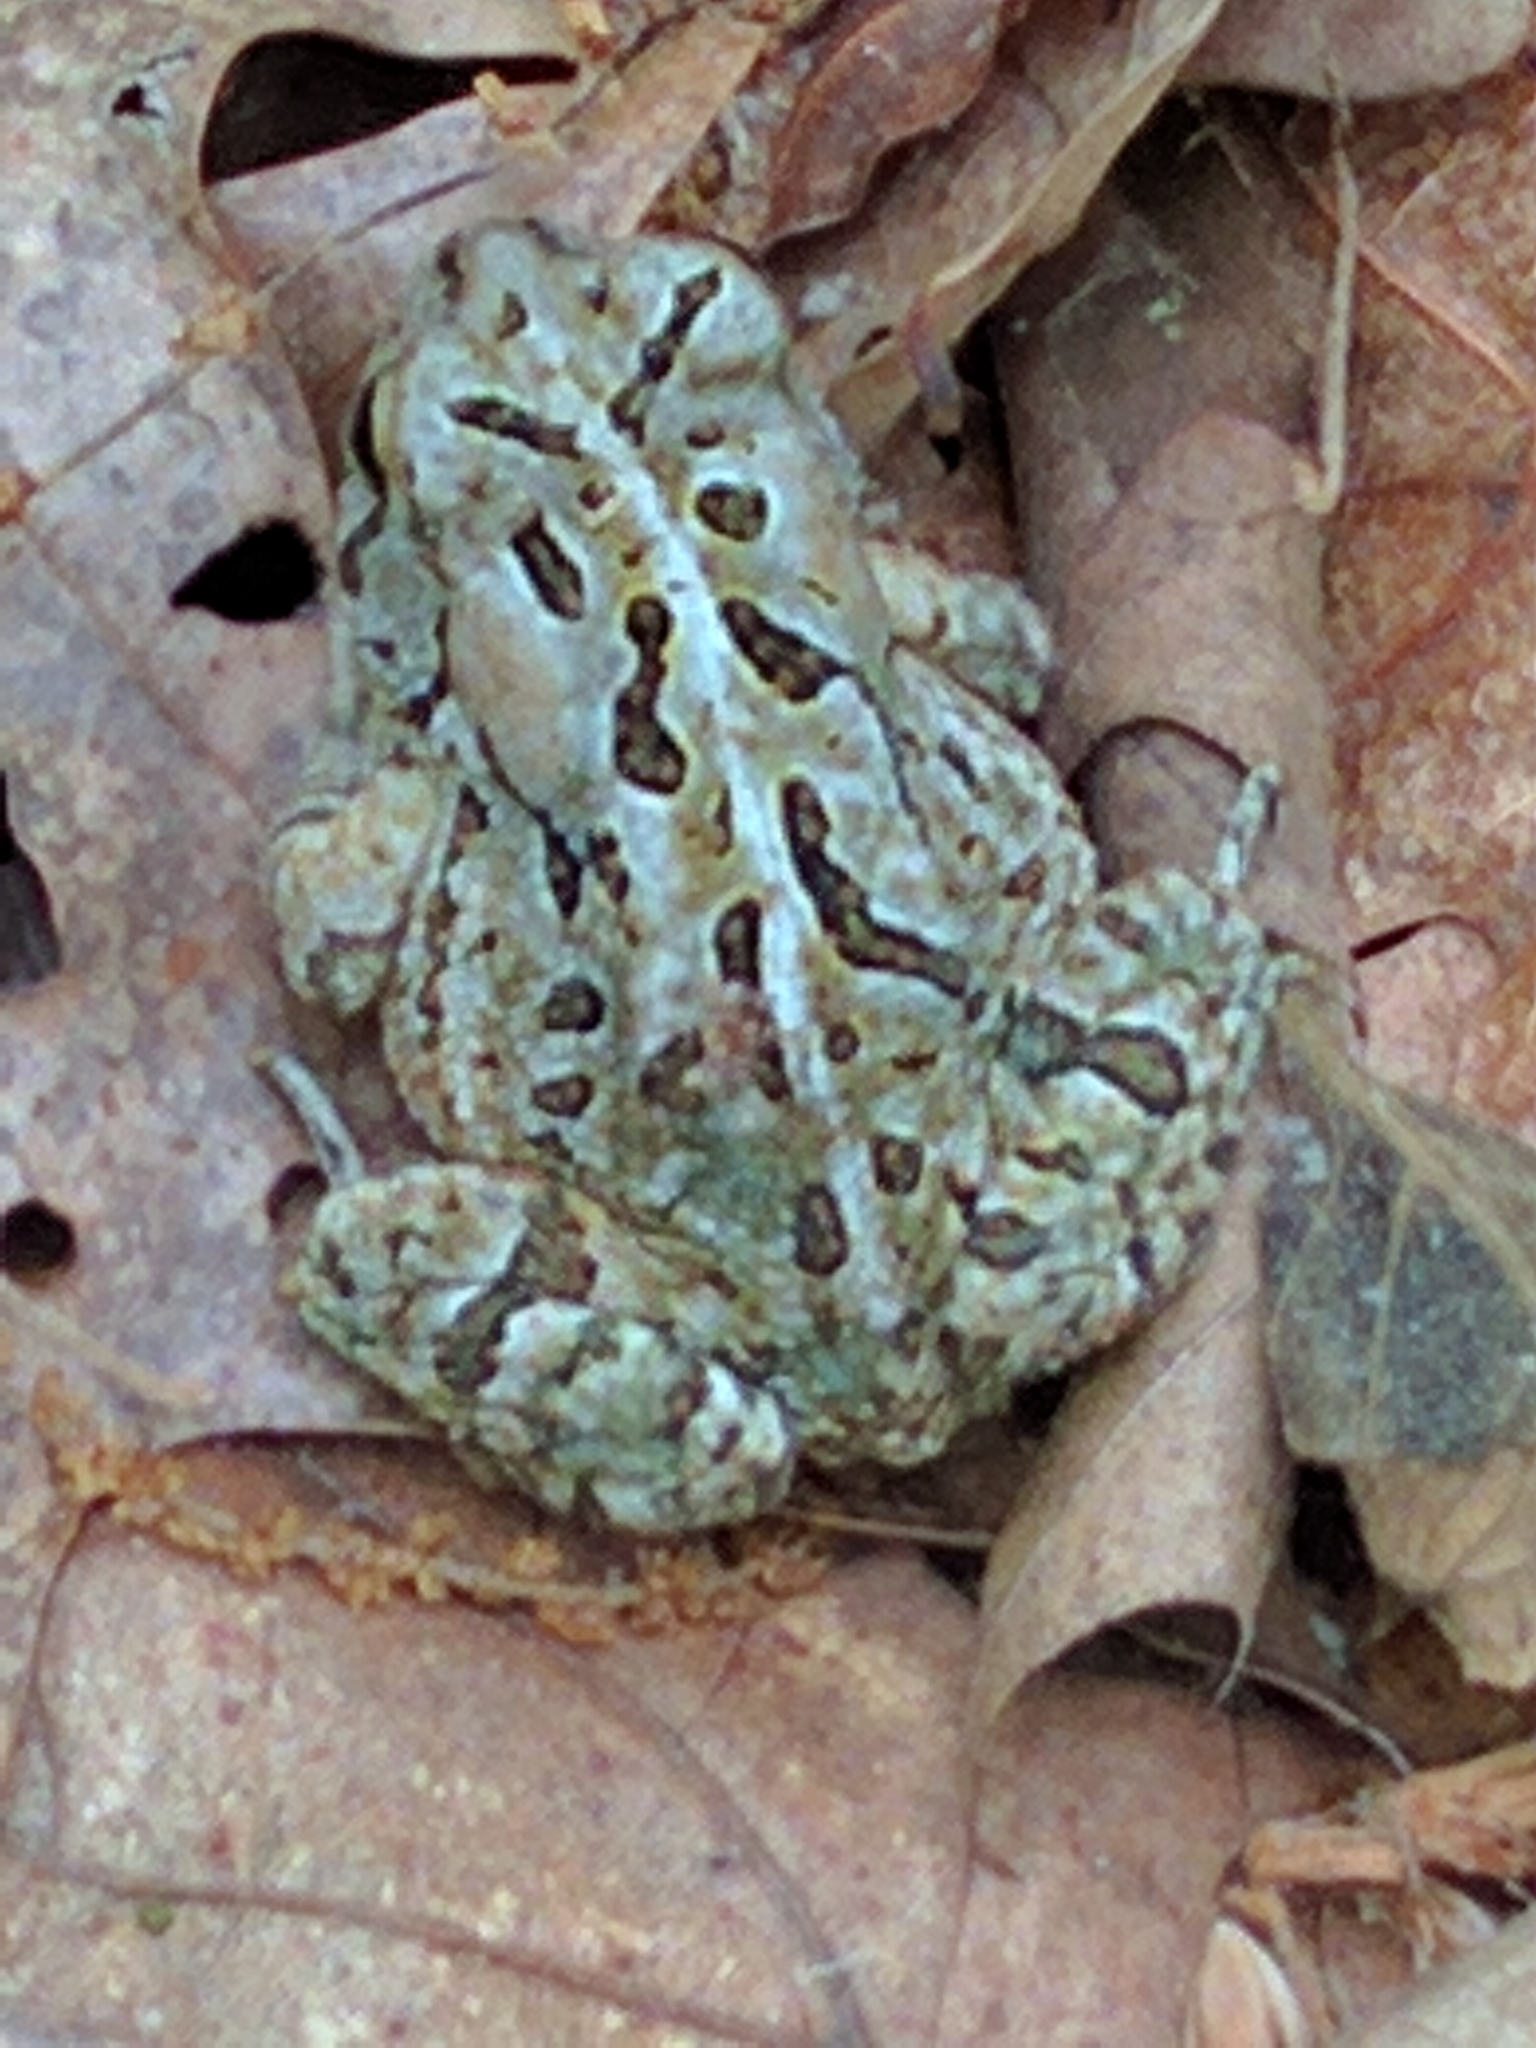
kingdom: Animalia
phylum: Chordata
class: Amphibia
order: Anura
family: Bufonidae
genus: Anaxyrus
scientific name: Anaxyrus fowleri
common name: Fowler's toad
